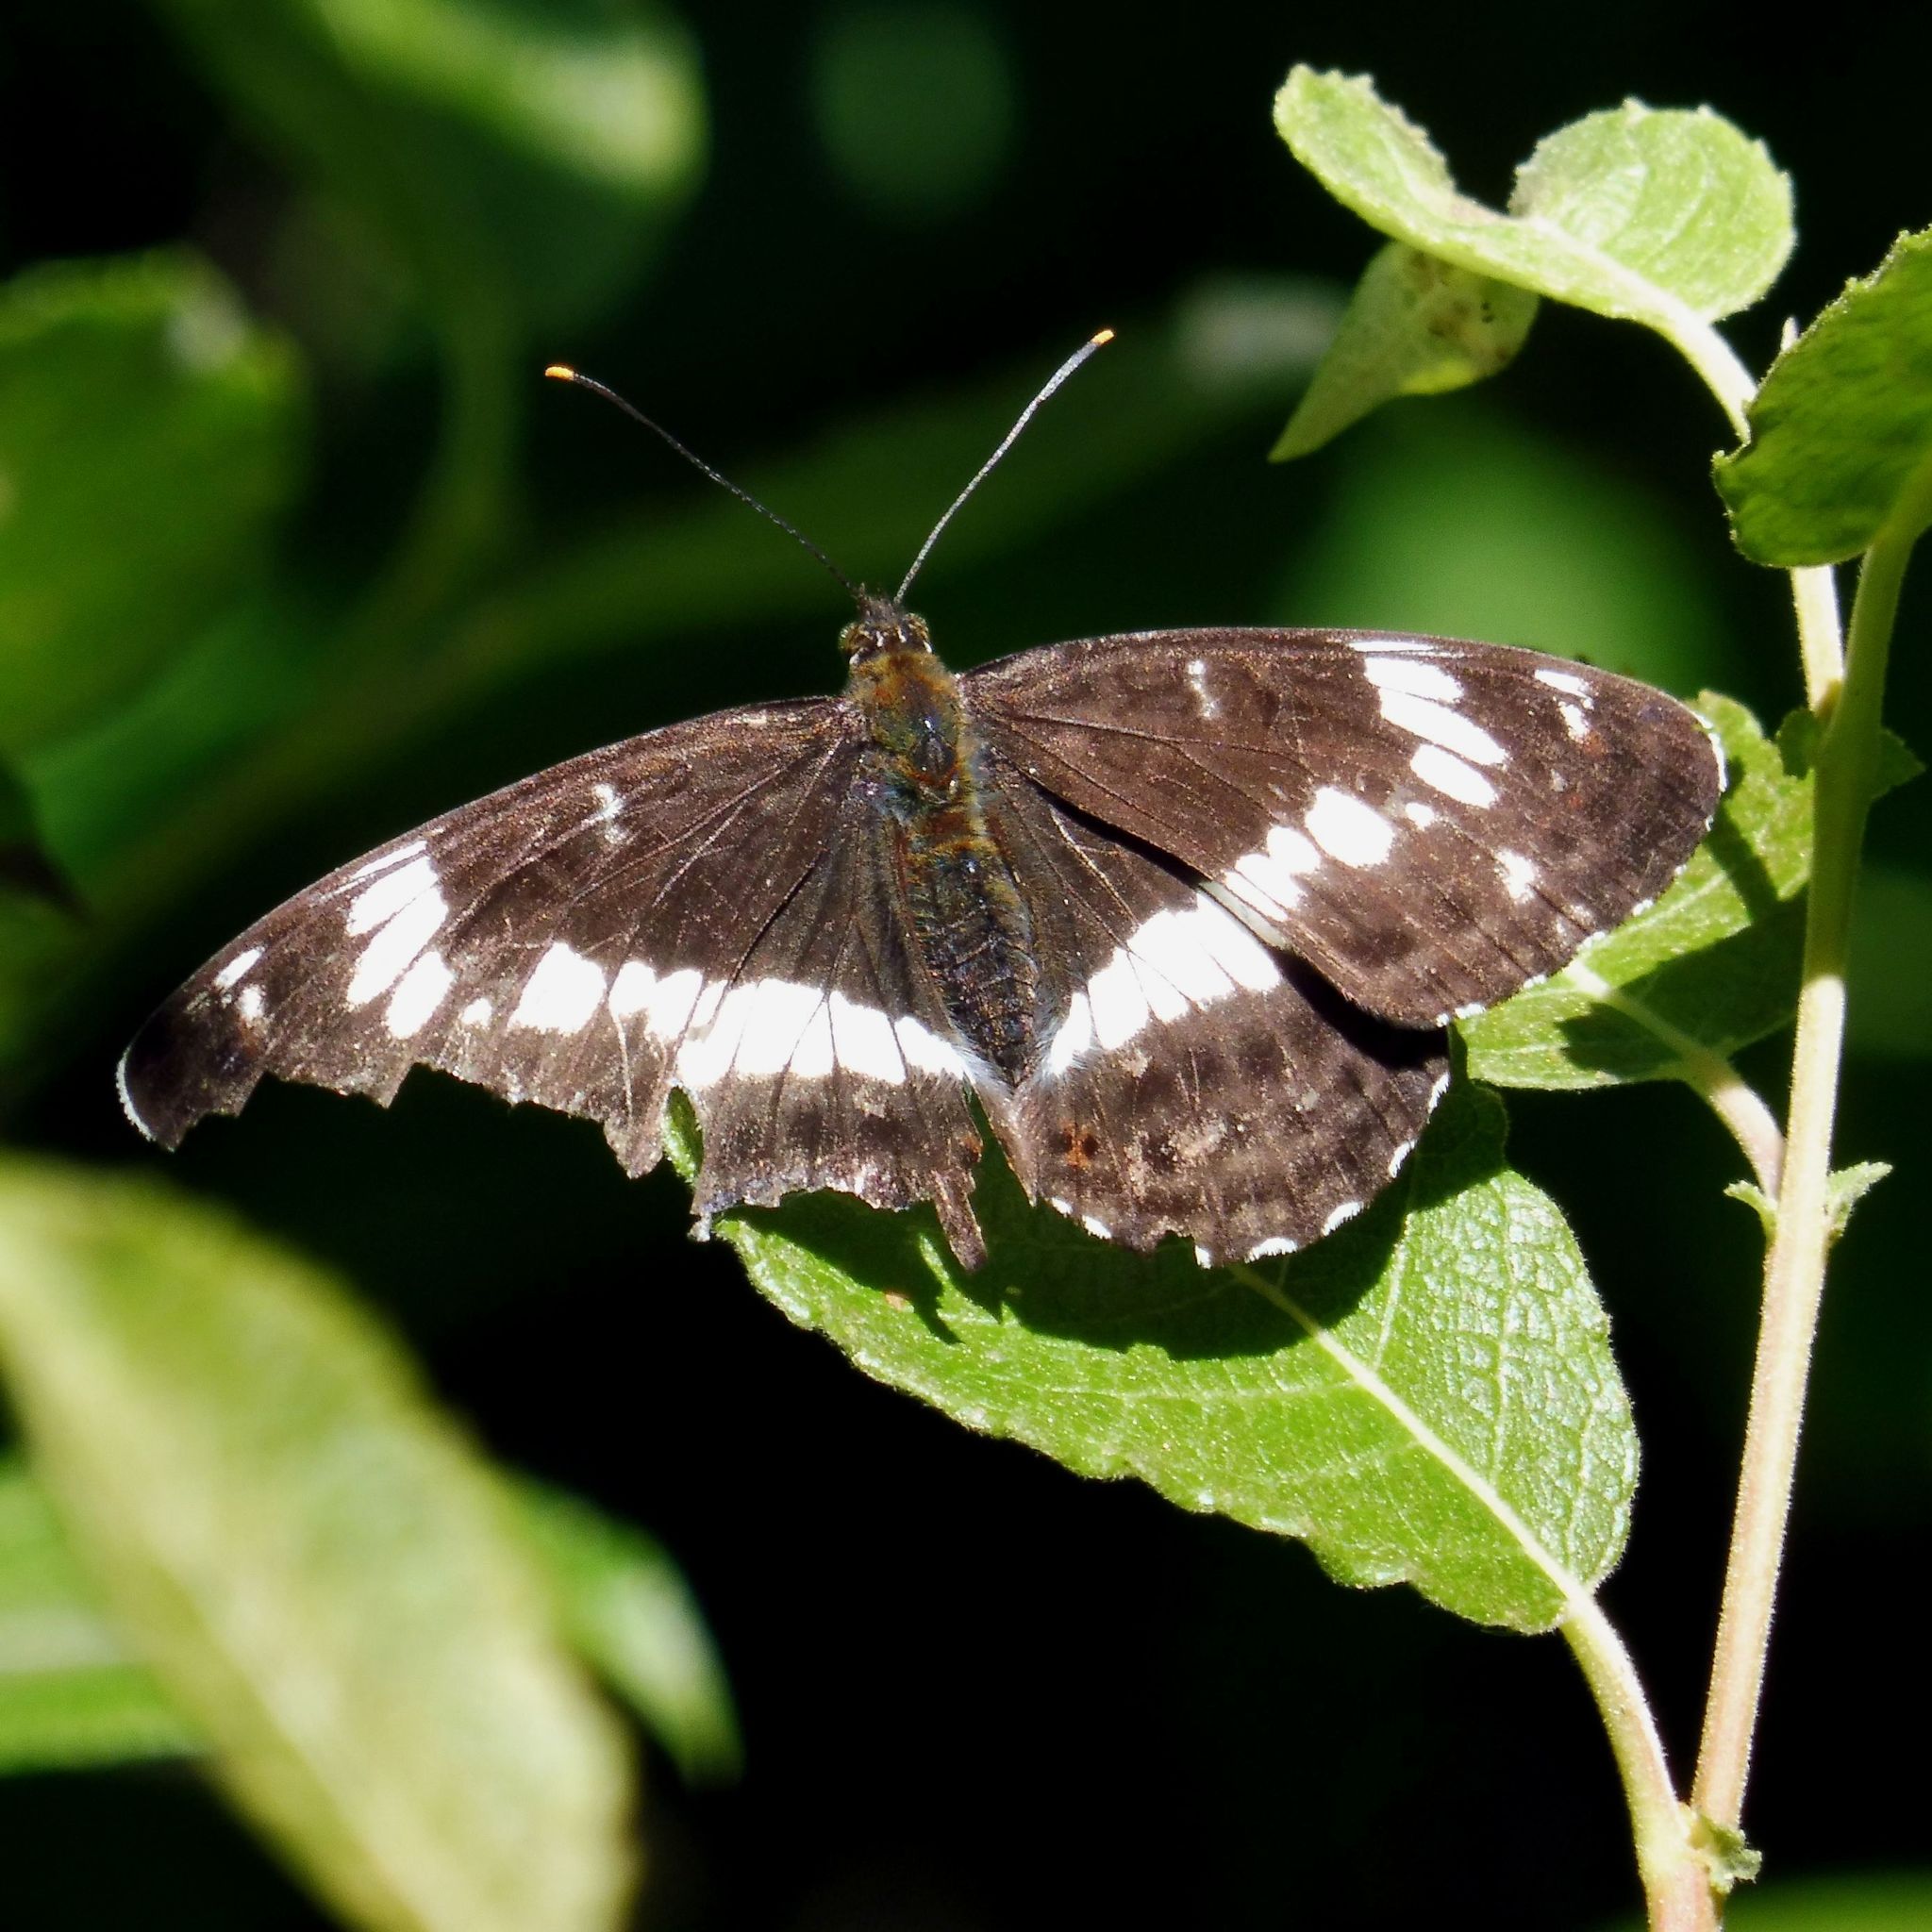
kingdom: Animalia
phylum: Arthropoda
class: Insecta
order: Lepidoptera
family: Nymphalidae
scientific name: Nymphalidae
